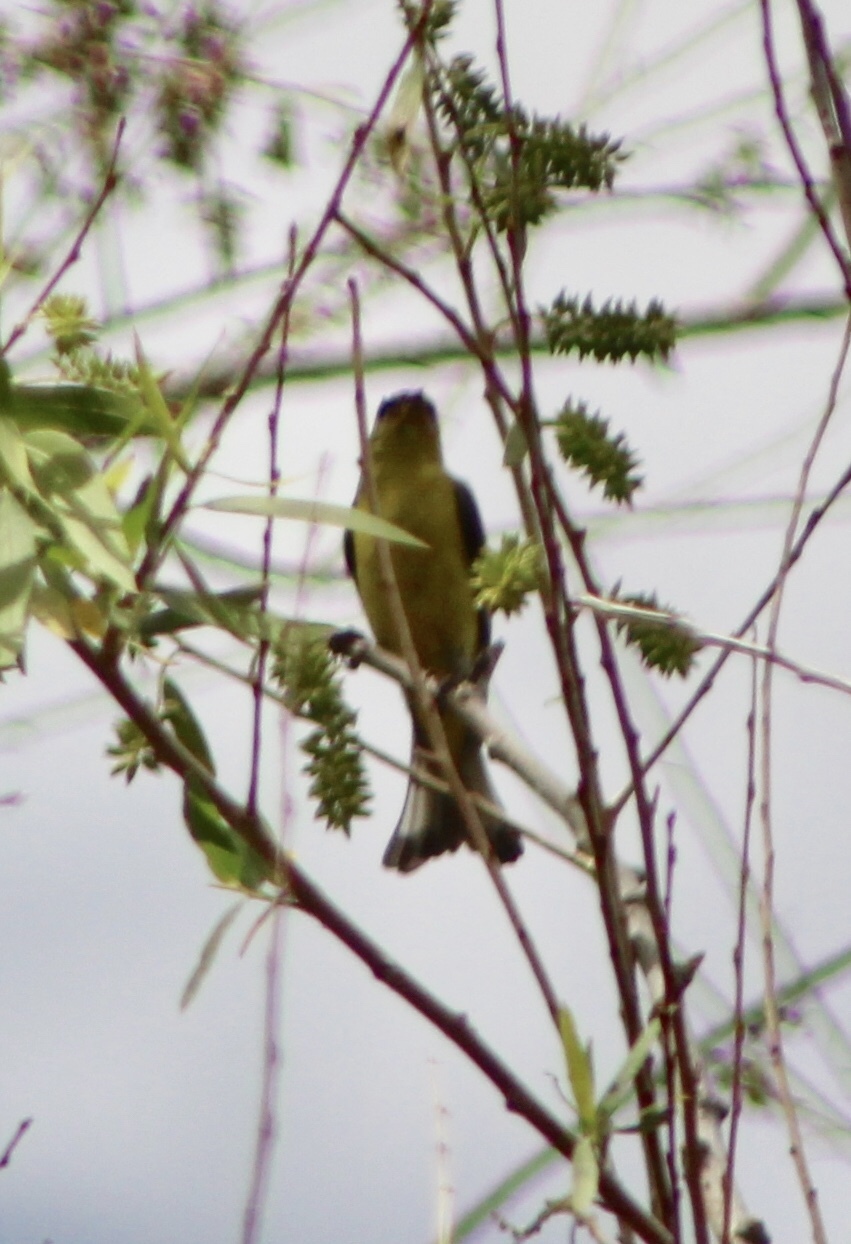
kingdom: Animalia
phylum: Chordata
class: Aves
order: Passeriformes
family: Fringillidae
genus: Spinus
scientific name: Spinus psaltria
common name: Lesser goldfinch
